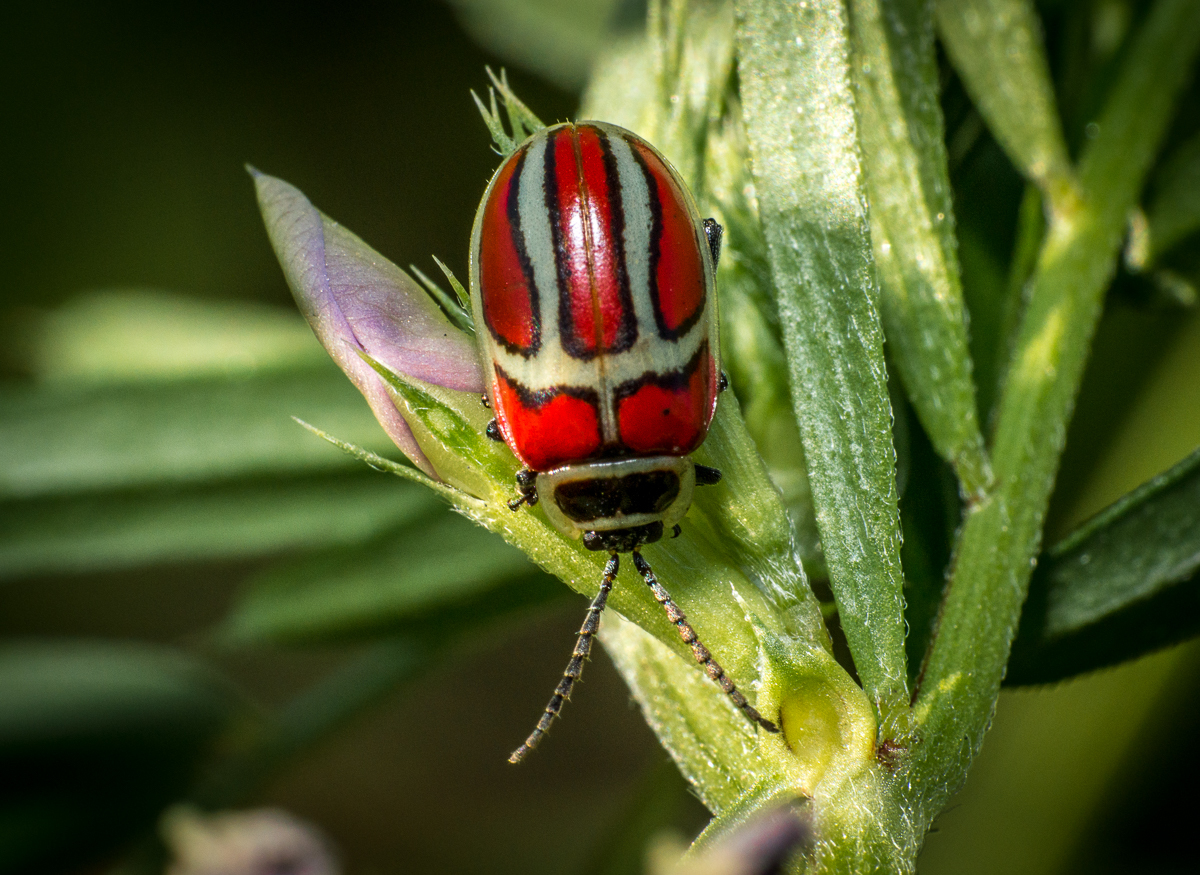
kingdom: Animalia
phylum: Arthropoda
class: Insecta
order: Coleoptera
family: Chrysomelidae
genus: Asphaera
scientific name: Asphaera
